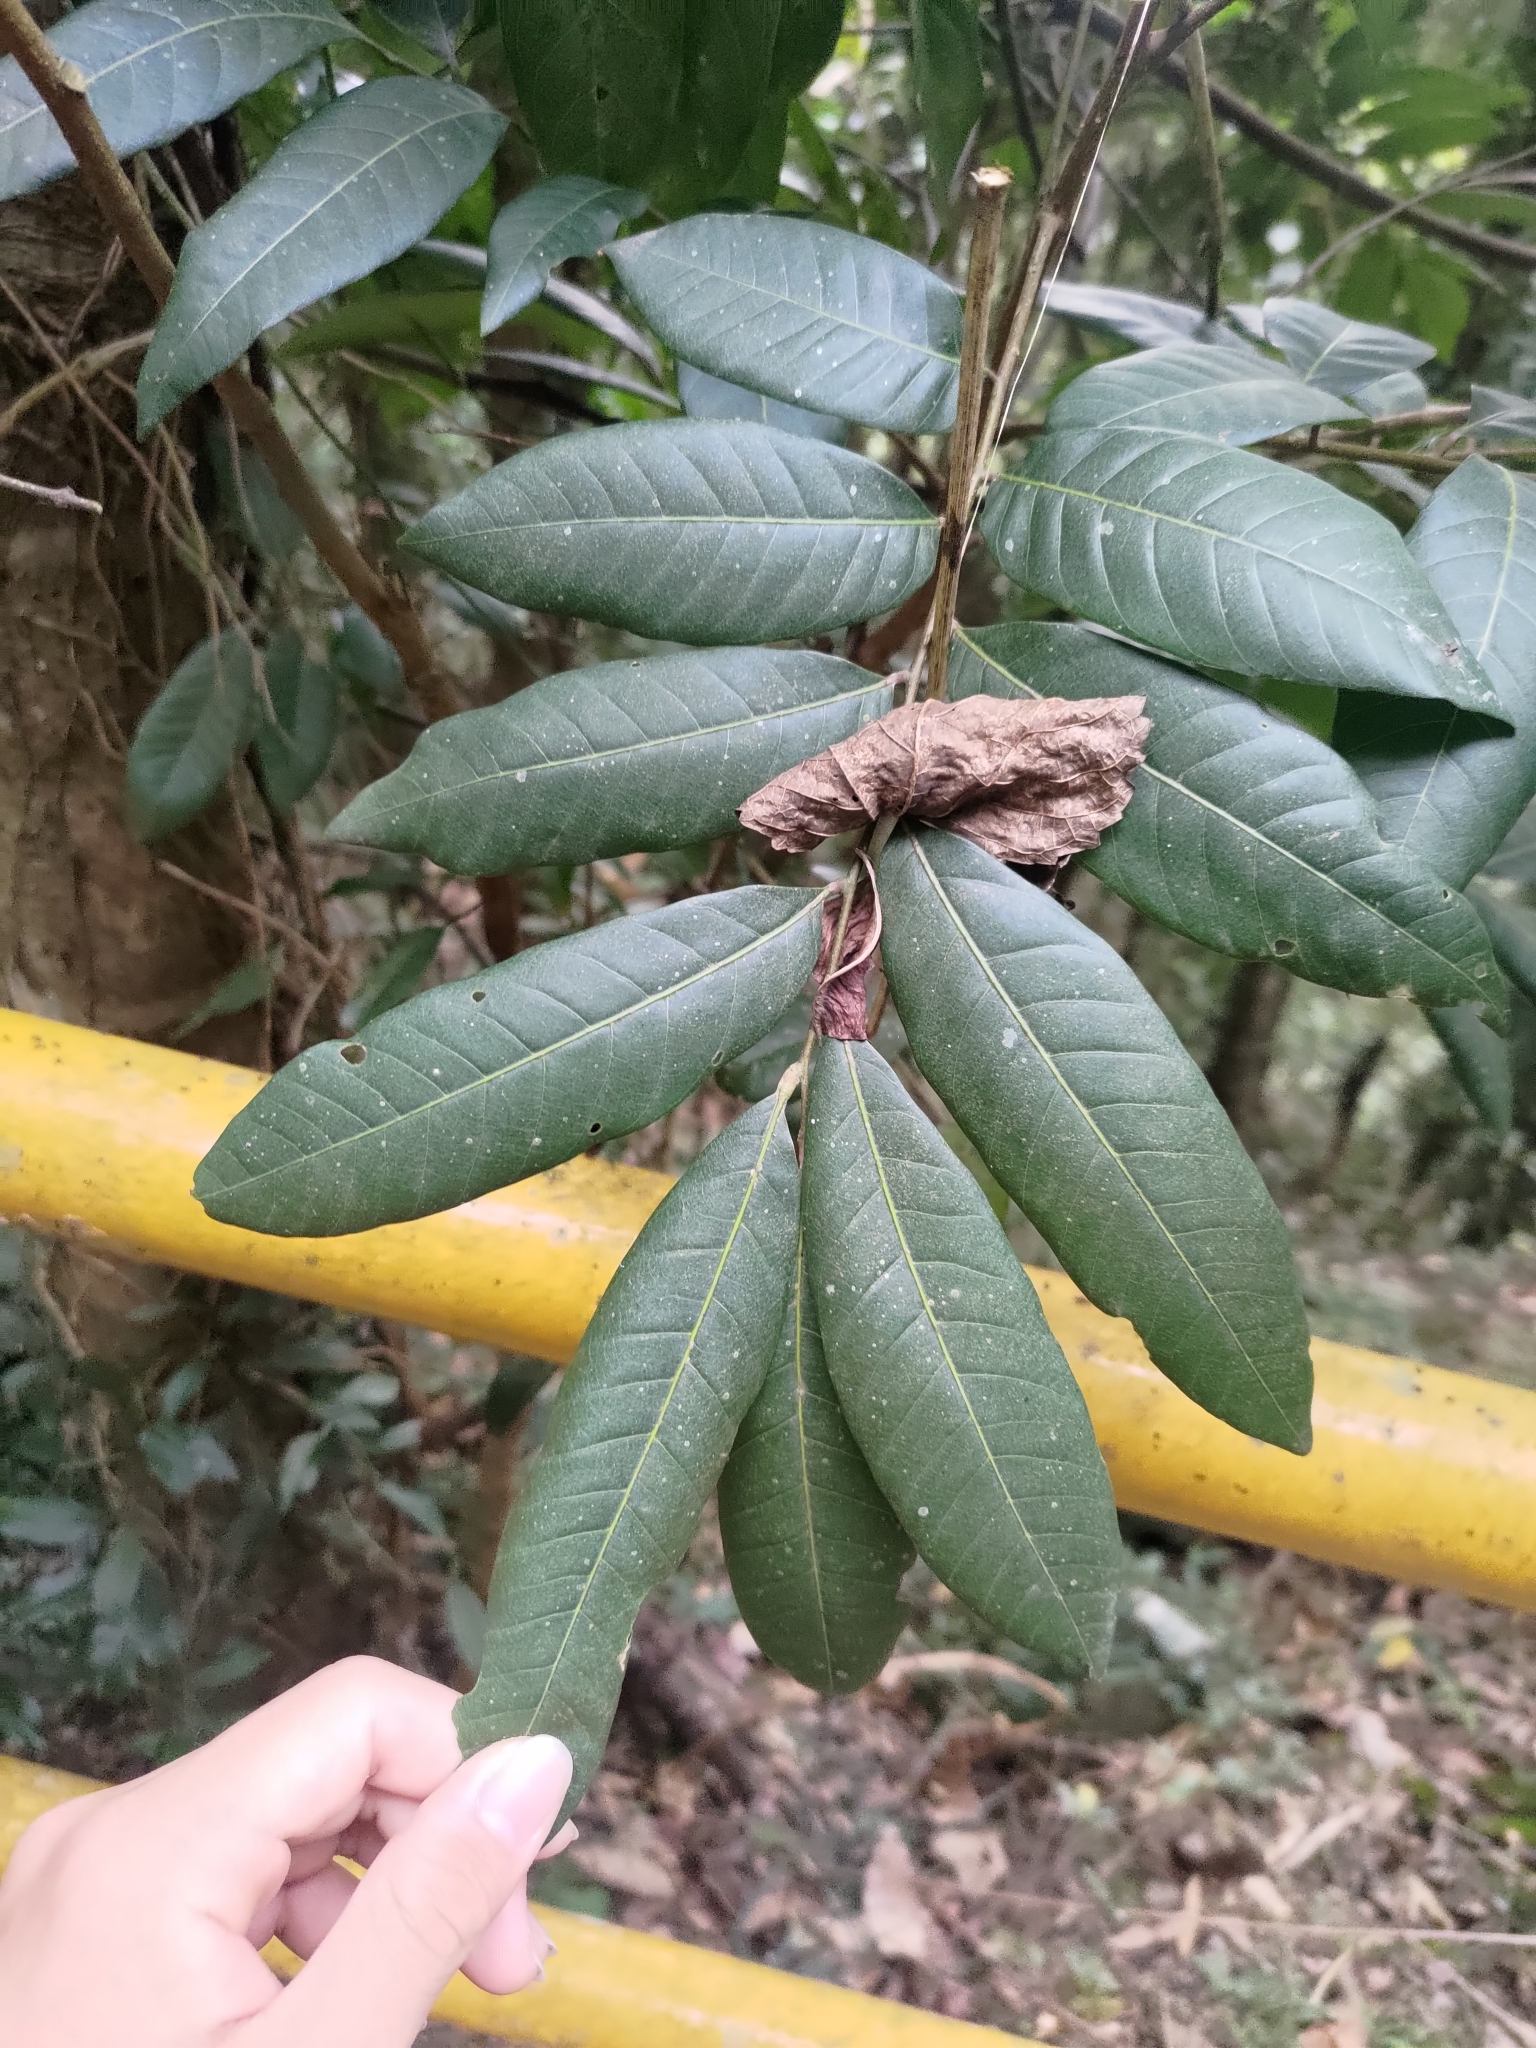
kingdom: Plantae
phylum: Tracheophyta
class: Magnoliopsida
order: Sapindales
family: Sapindaceae
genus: Dimocarpus
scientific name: Dimocarpus longan
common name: Longan
